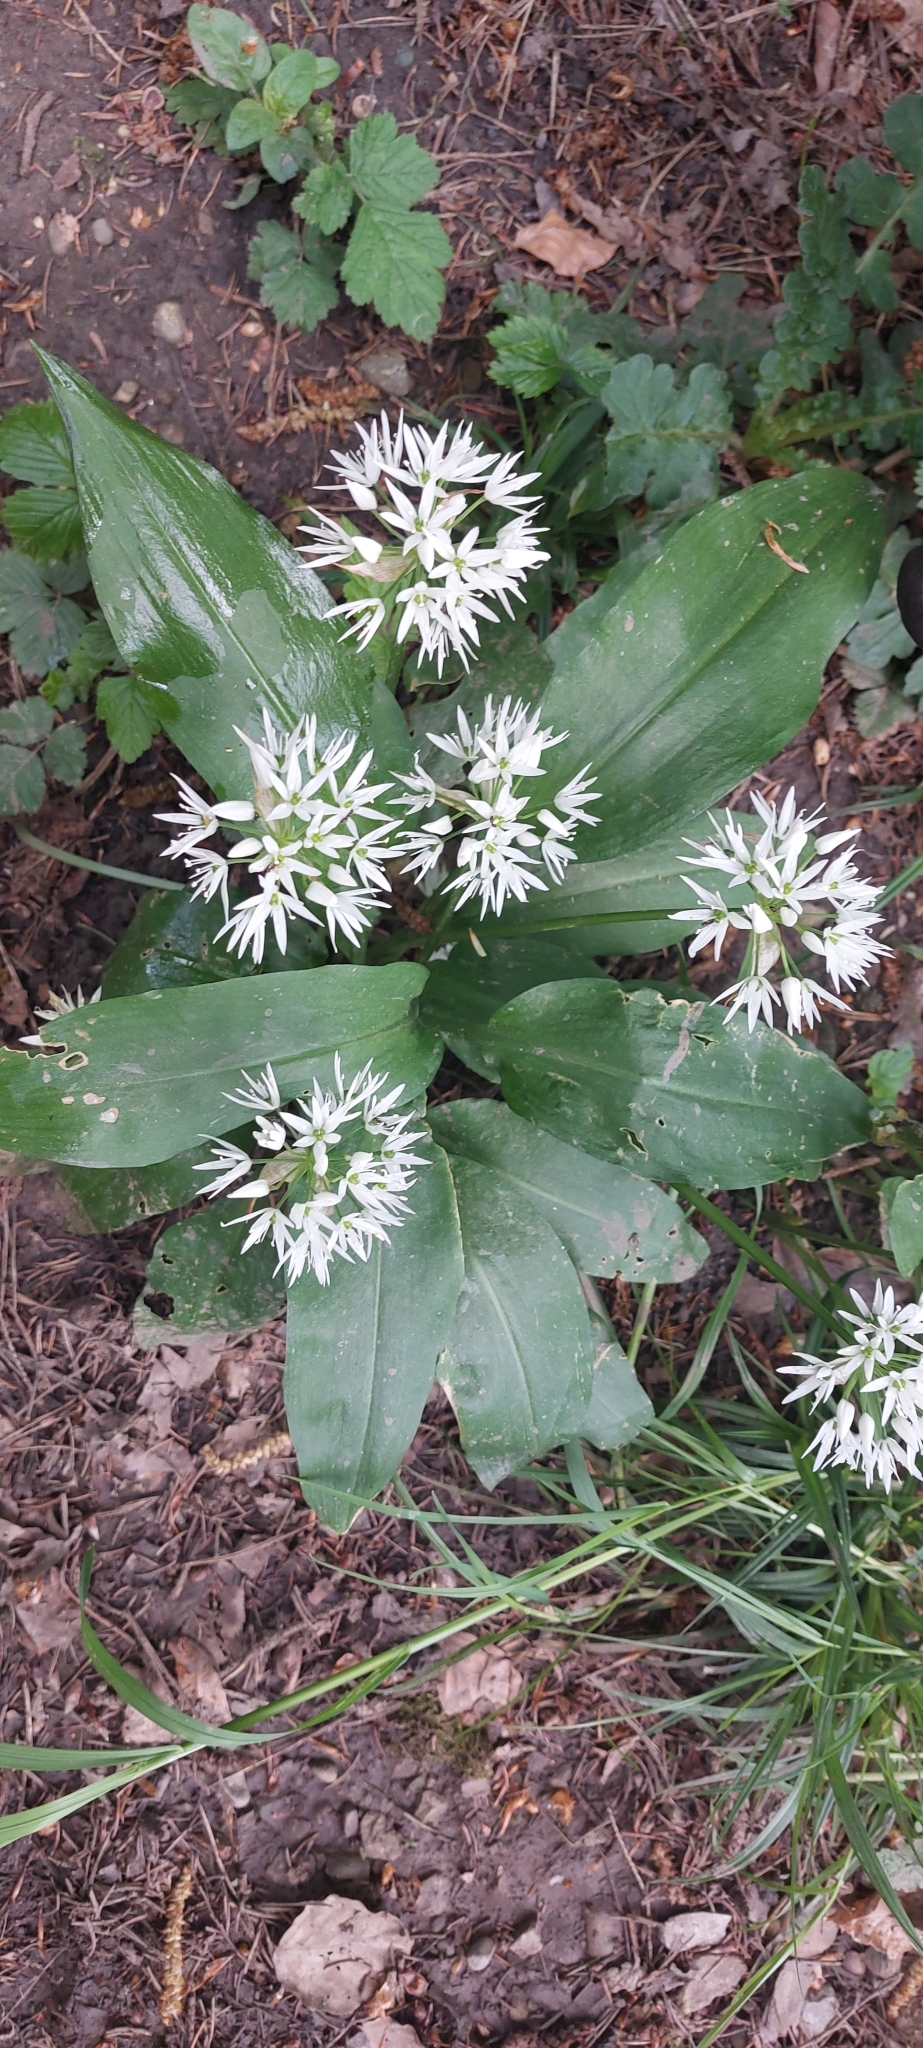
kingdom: Plantae
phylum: Tracheophyta
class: Liliopsida
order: Asparagales
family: Amaryllidaceae
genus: Allium
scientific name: Allium ursinum
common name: Ramsons
